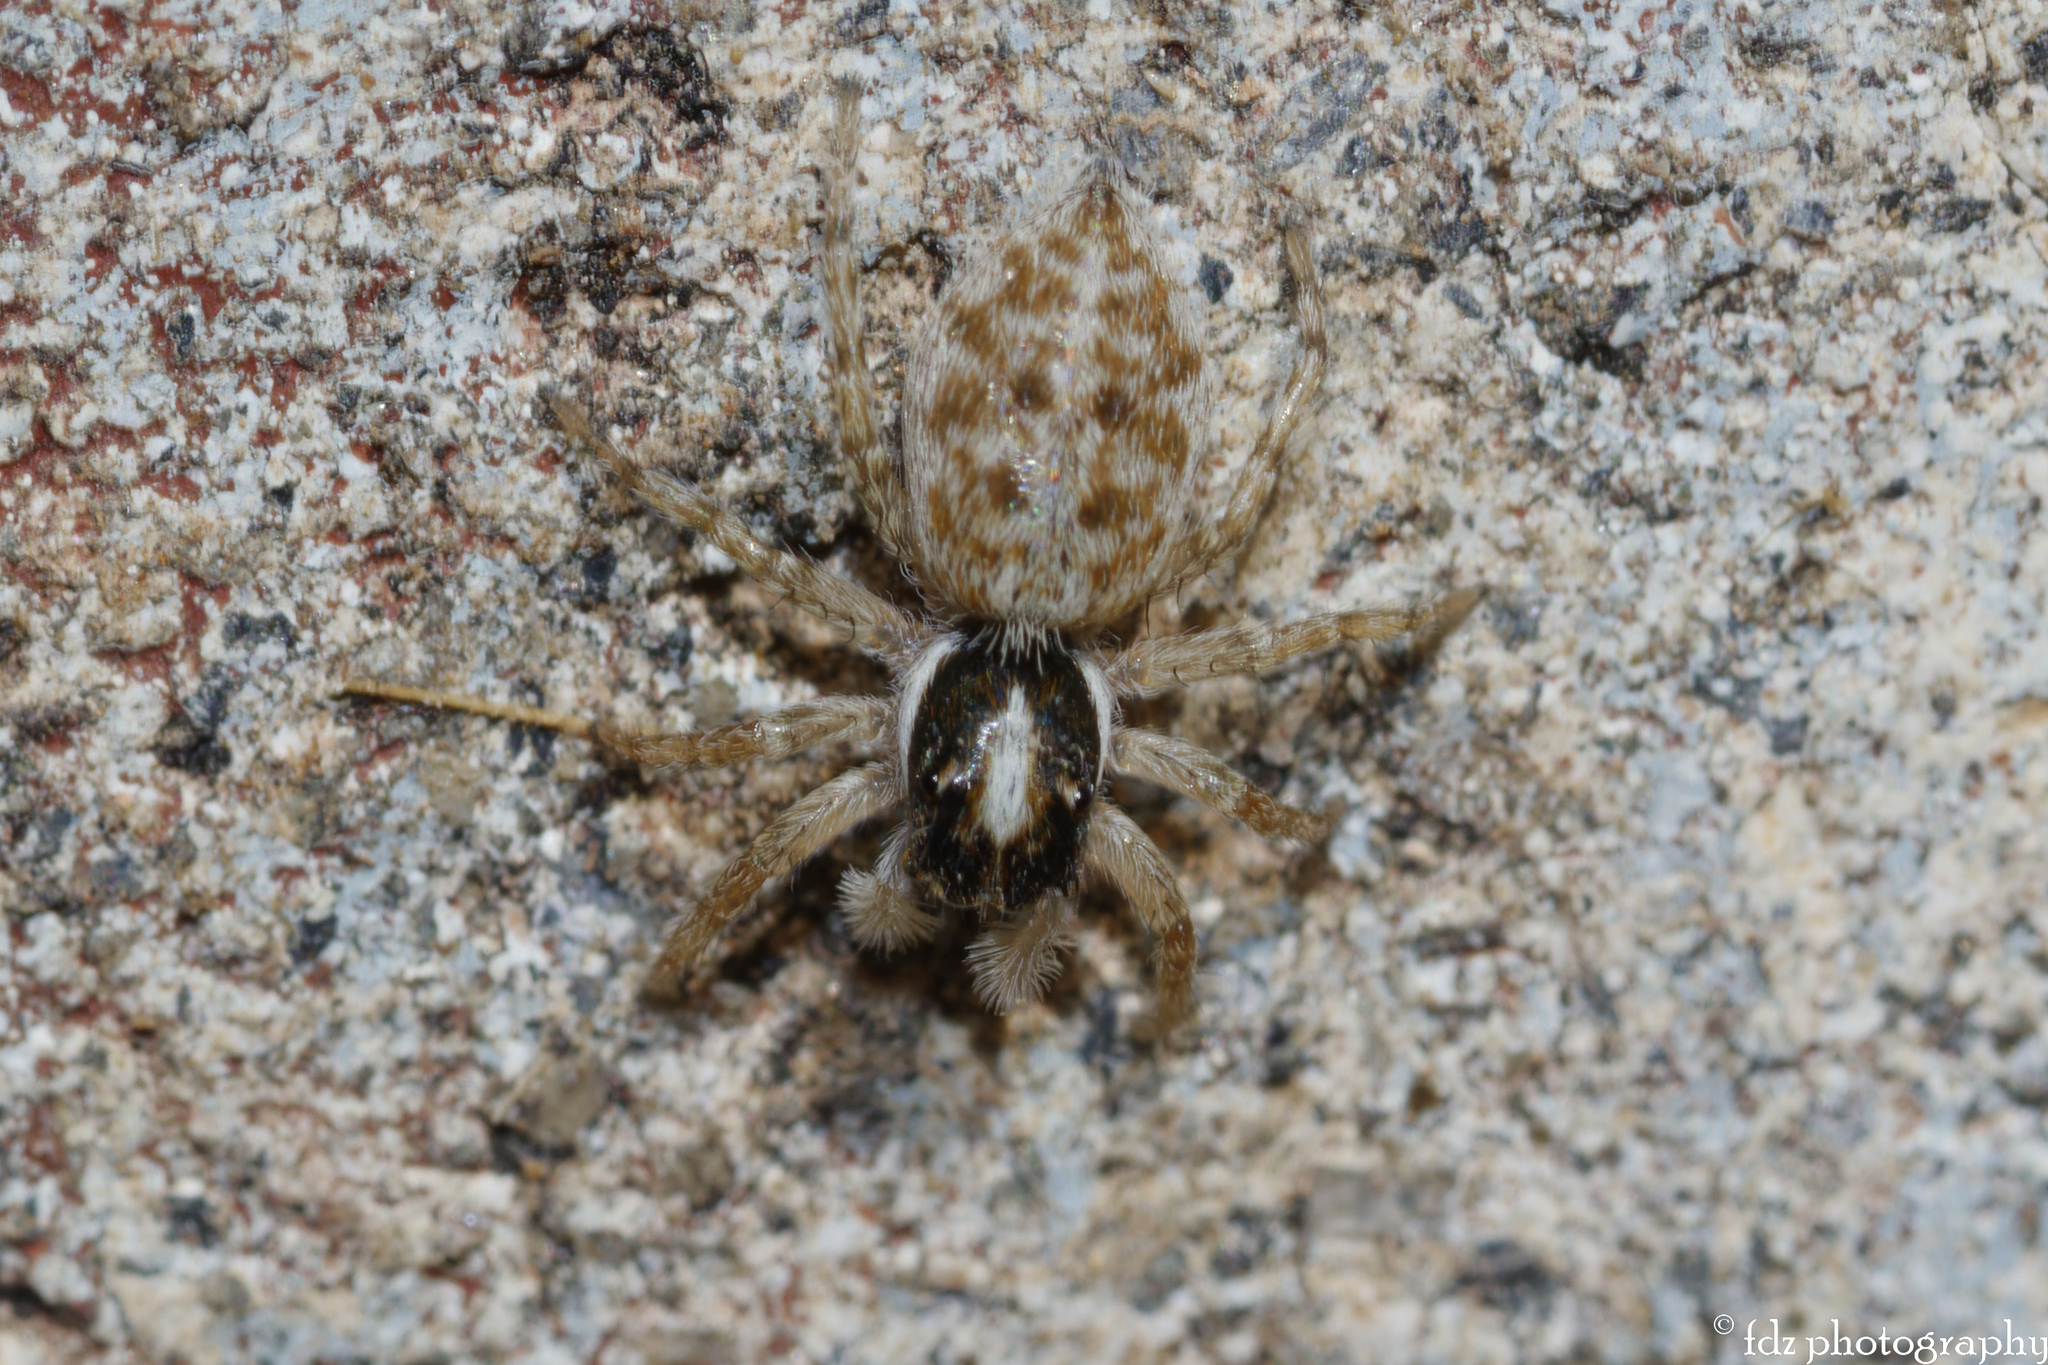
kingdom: Animalia
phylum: Arthropoda
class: Arachnida
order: Araneae
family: Salticidae
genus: Menemerus
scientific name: Menemerus semilimbatus
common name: Jumping spider
